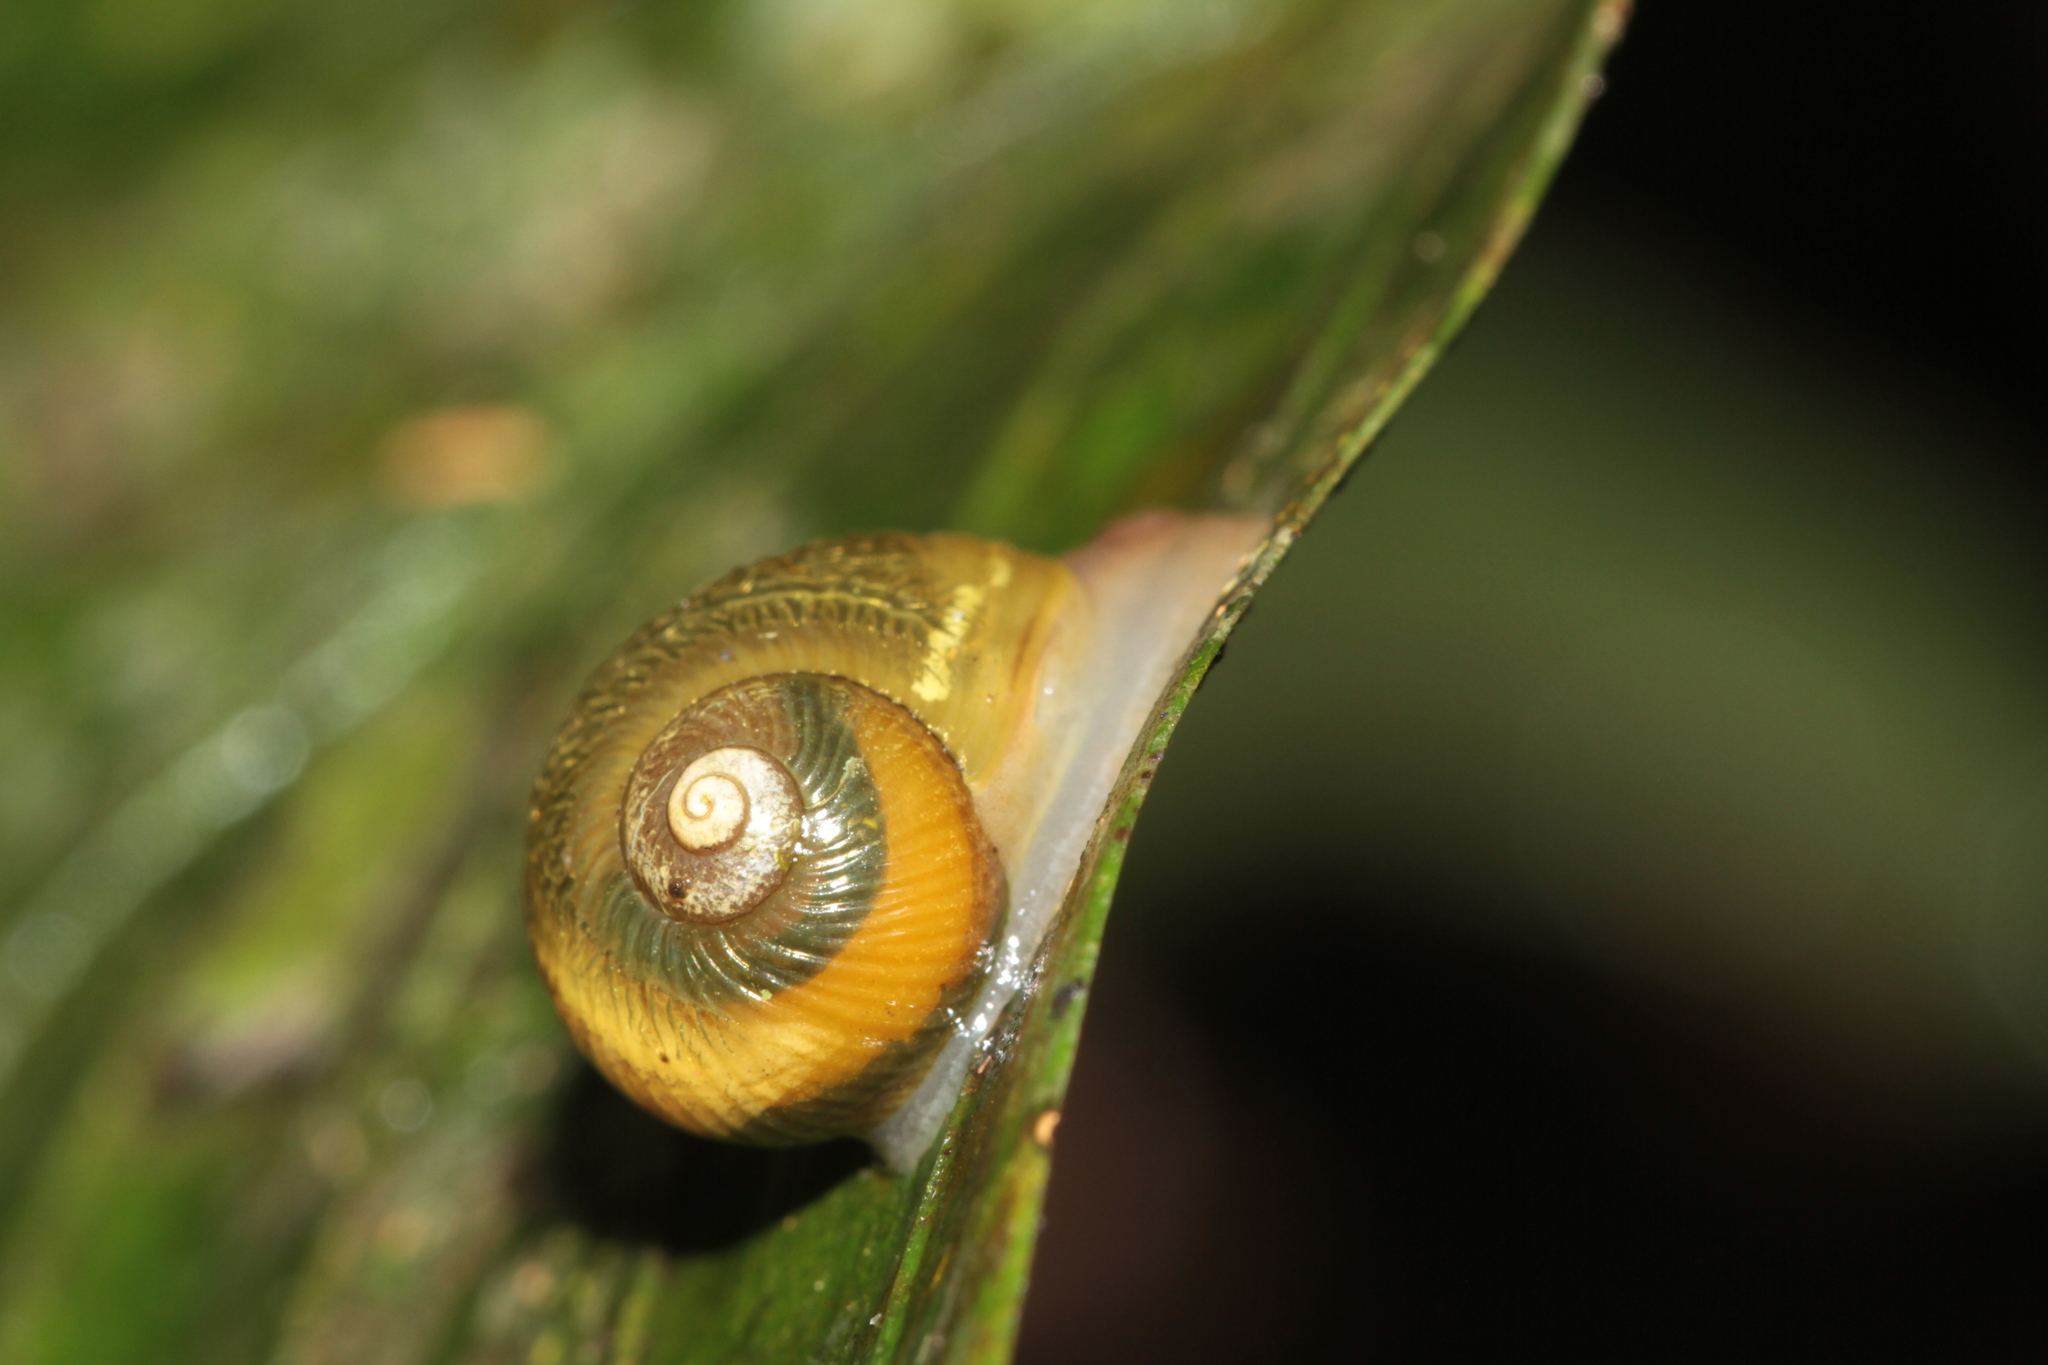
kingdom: Animalia
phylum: Mollusca
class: Gastropoda
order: Stylommatophora
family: Simpulopsidae
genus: Simpulopsis
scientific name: Simpulopsis corrugata
